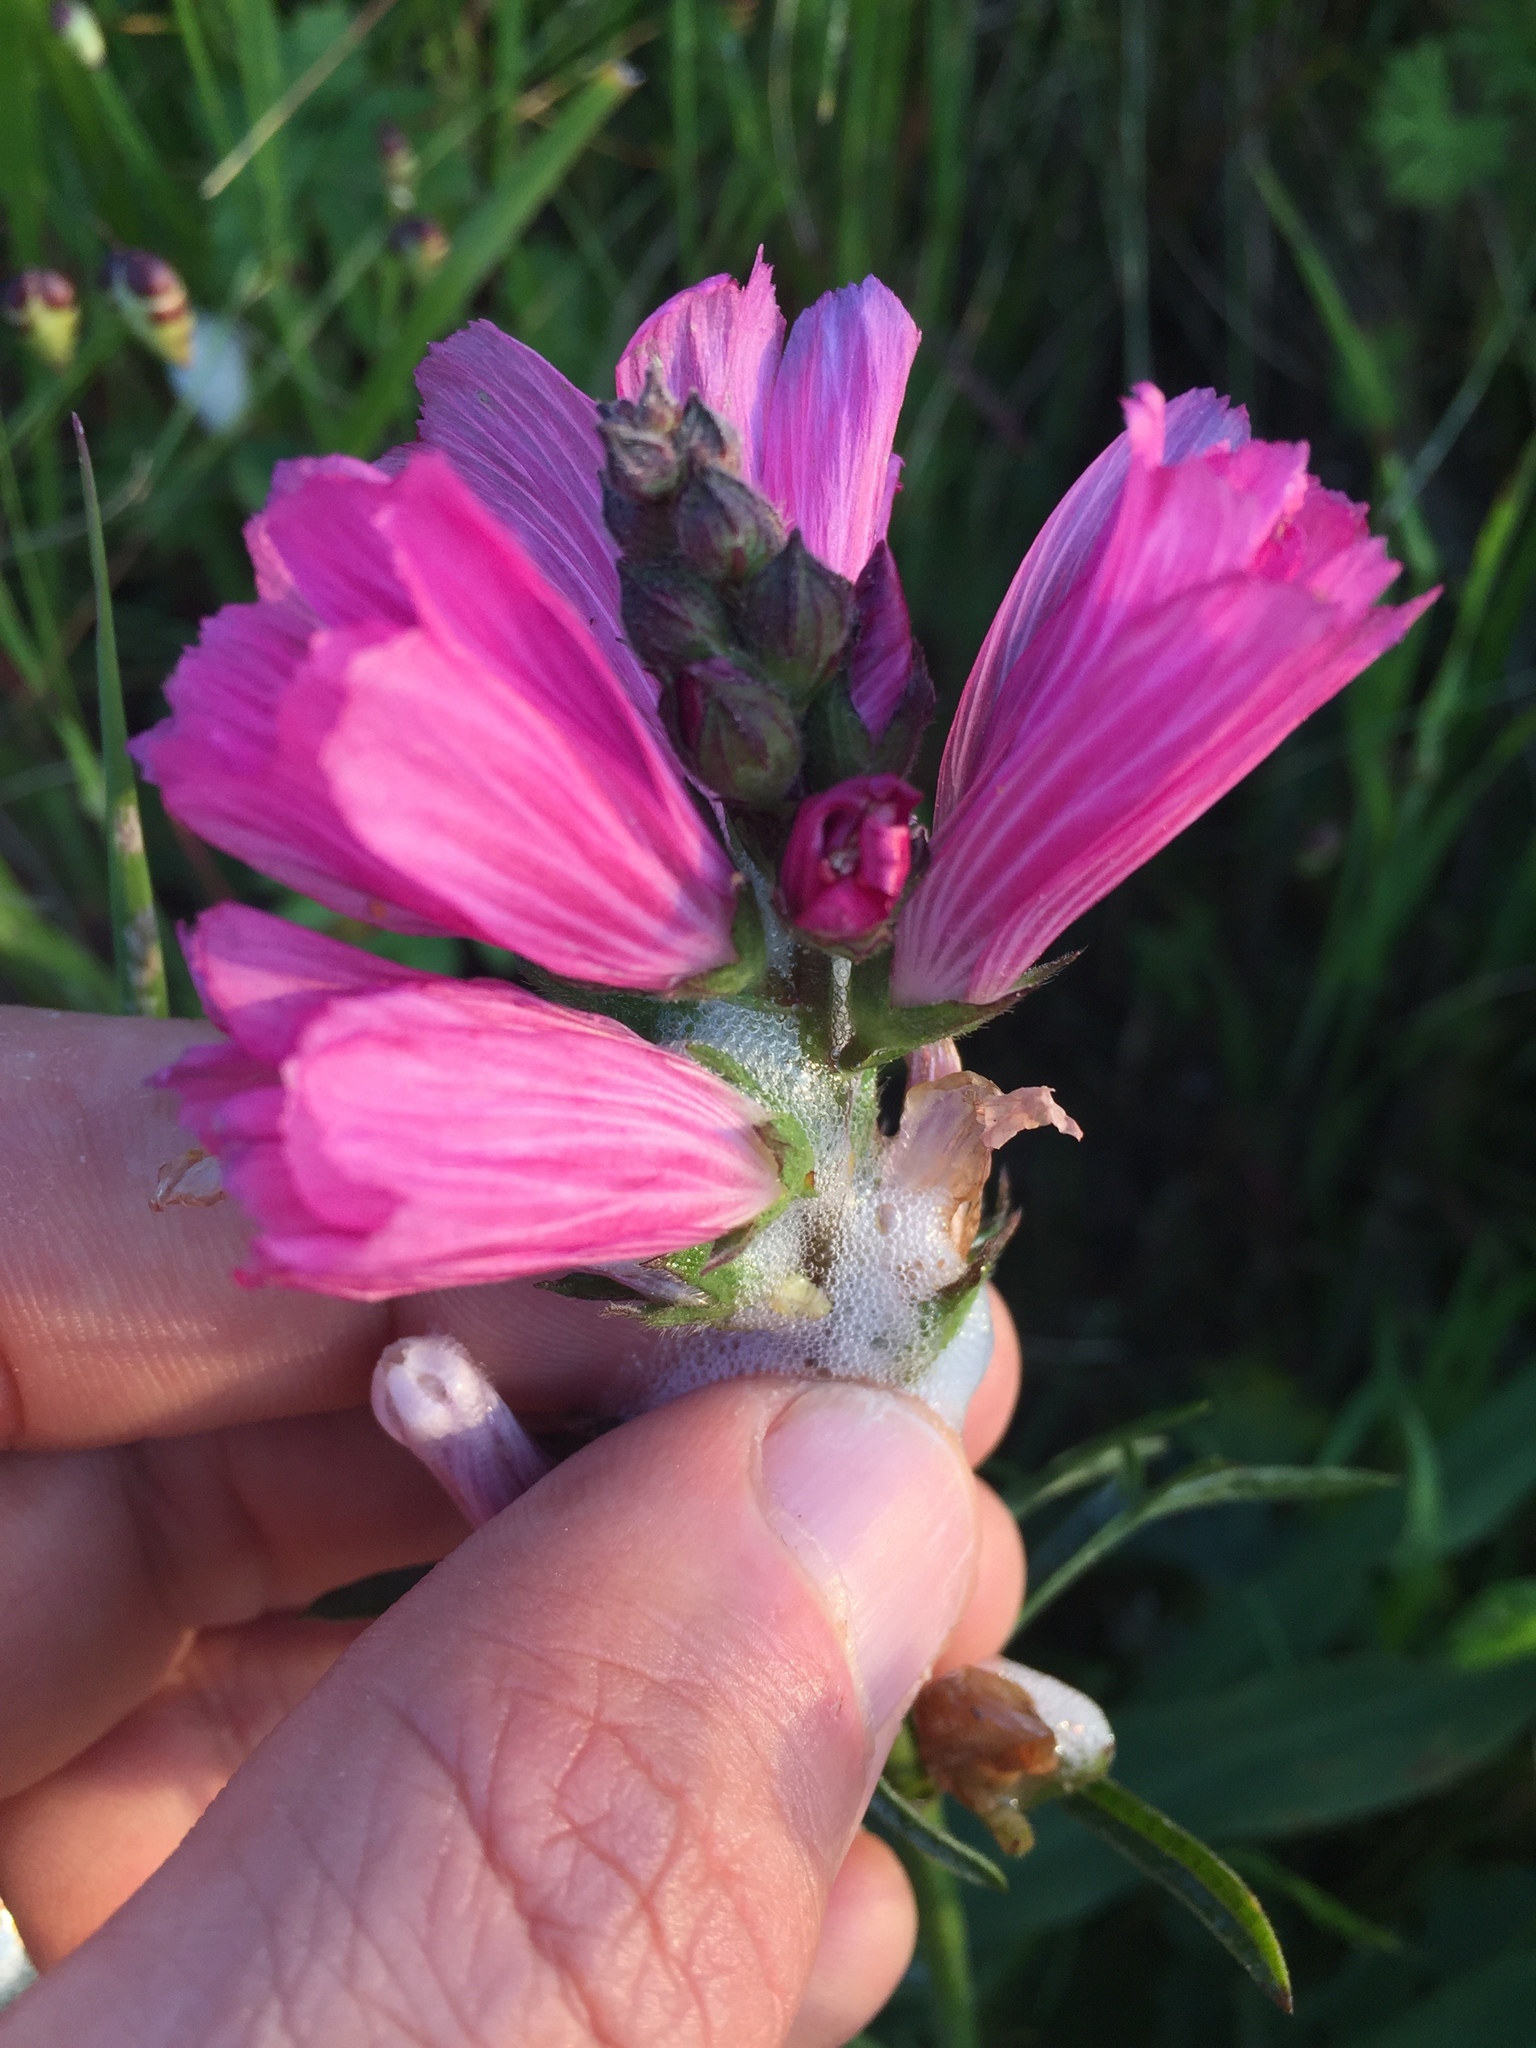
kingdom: Plantae
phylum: Tracheophyta
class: Magnoliopsida
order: Malvales
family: Malvaceae
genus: Sidalcea
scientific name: Sidalcea malviflora
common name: Greek mallow
